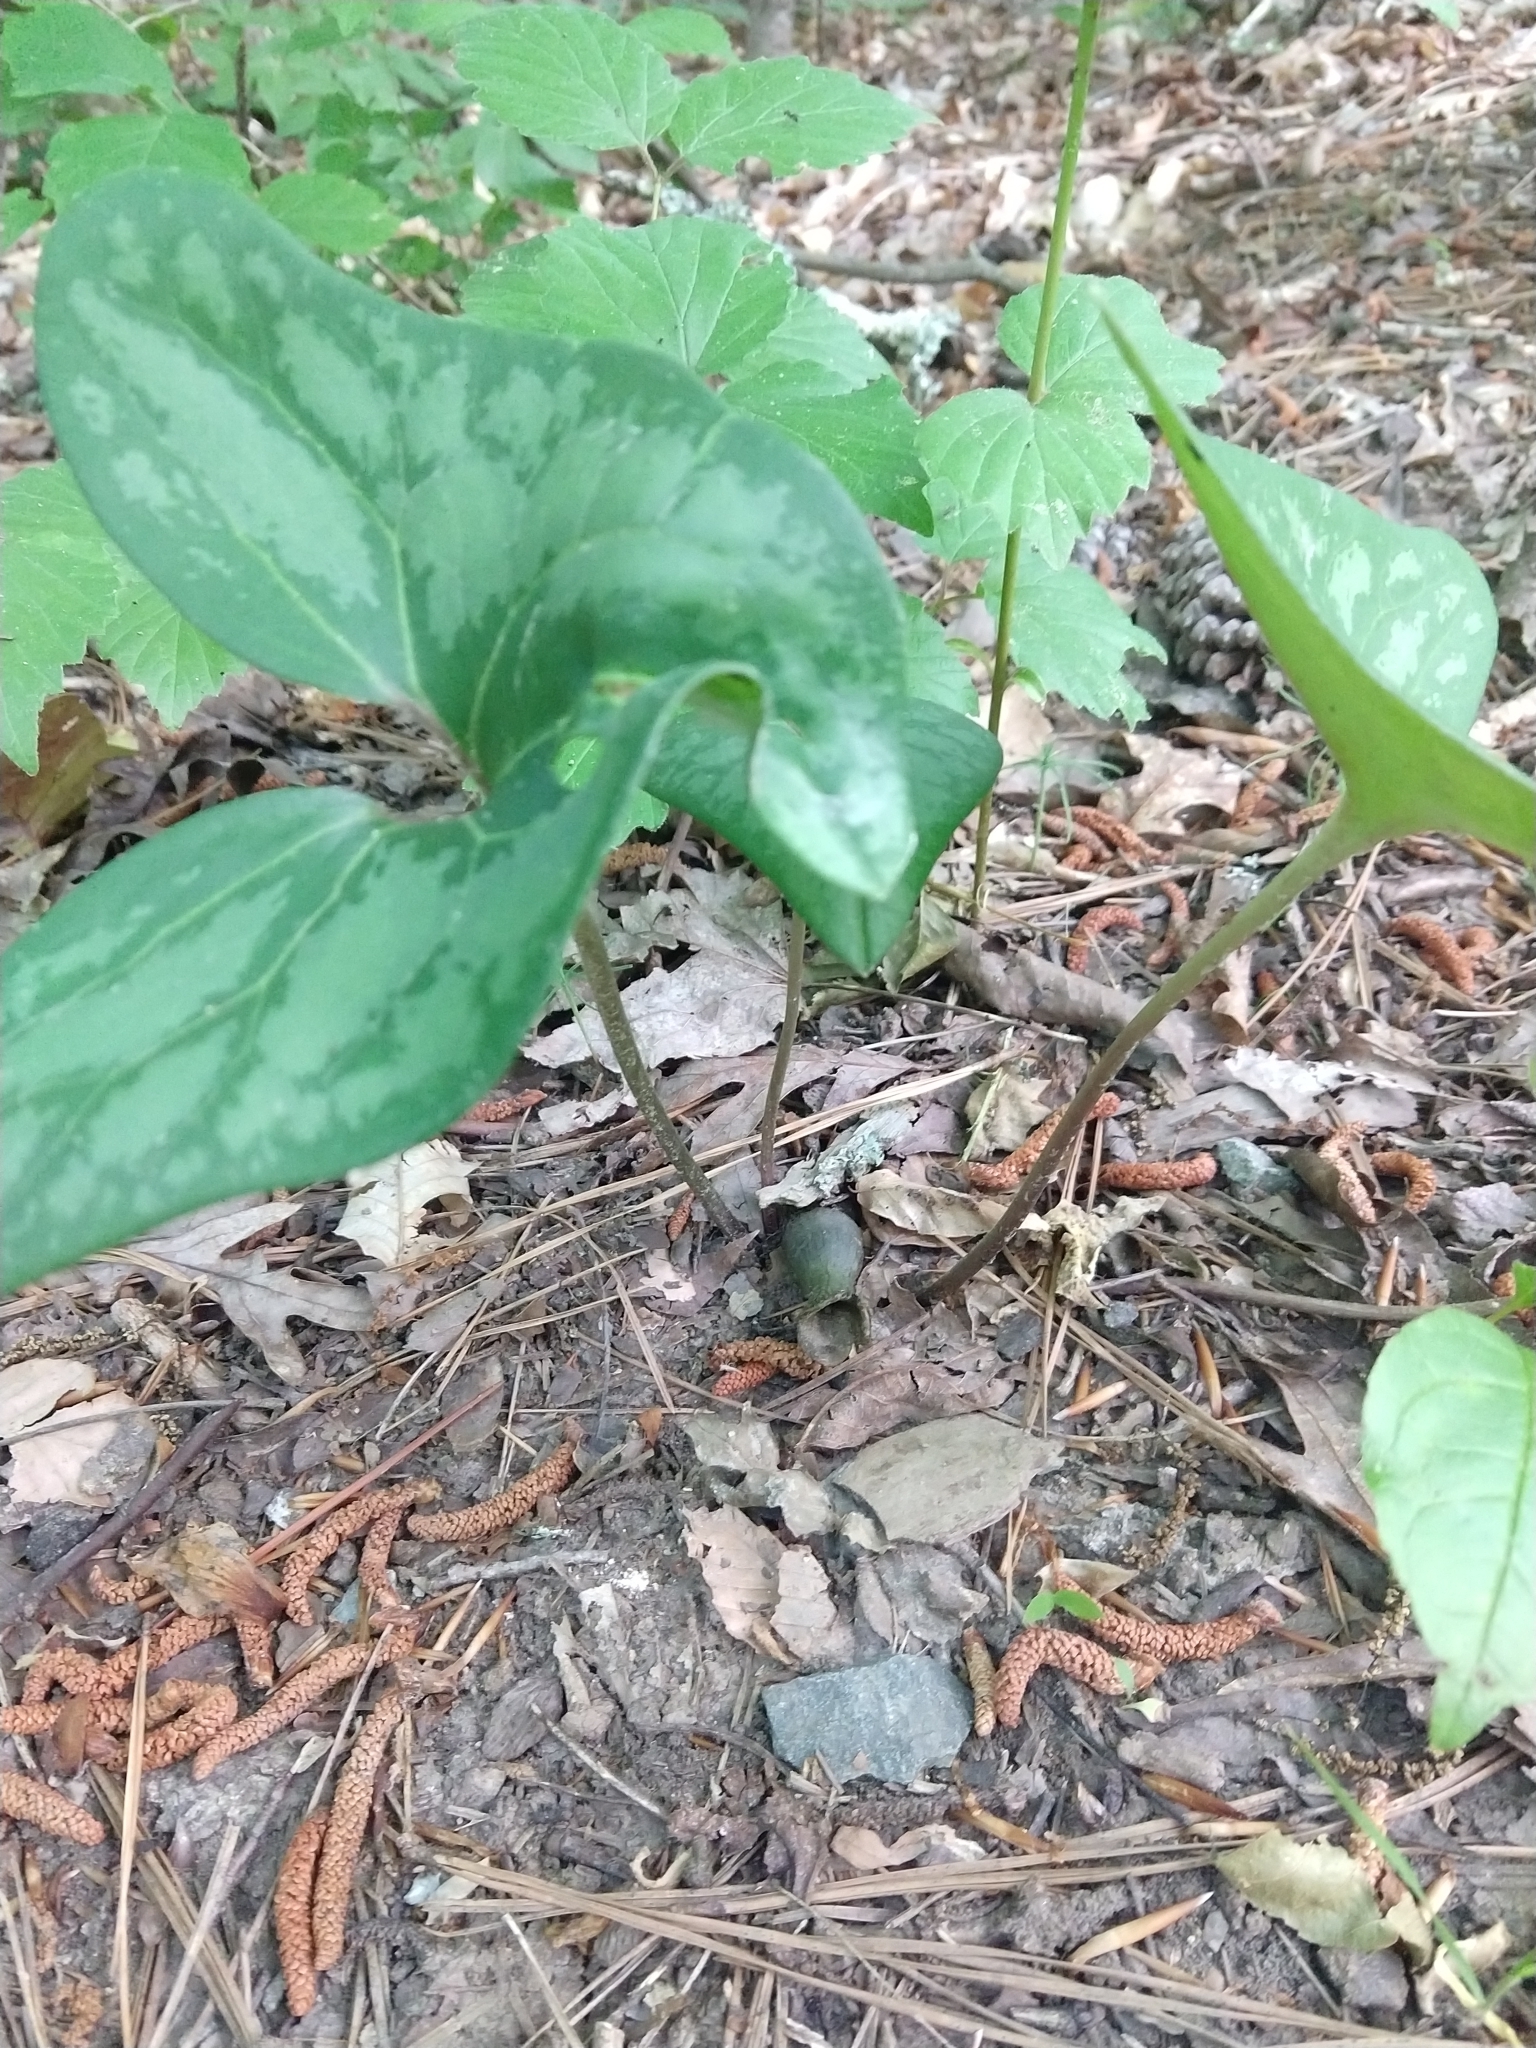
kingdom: Plantae
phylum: Tracheophyta
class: Magnoliopsida
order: Piperales
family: Aristolochiaceae
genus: Hexastylis
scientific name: Hexastylis arifolia
